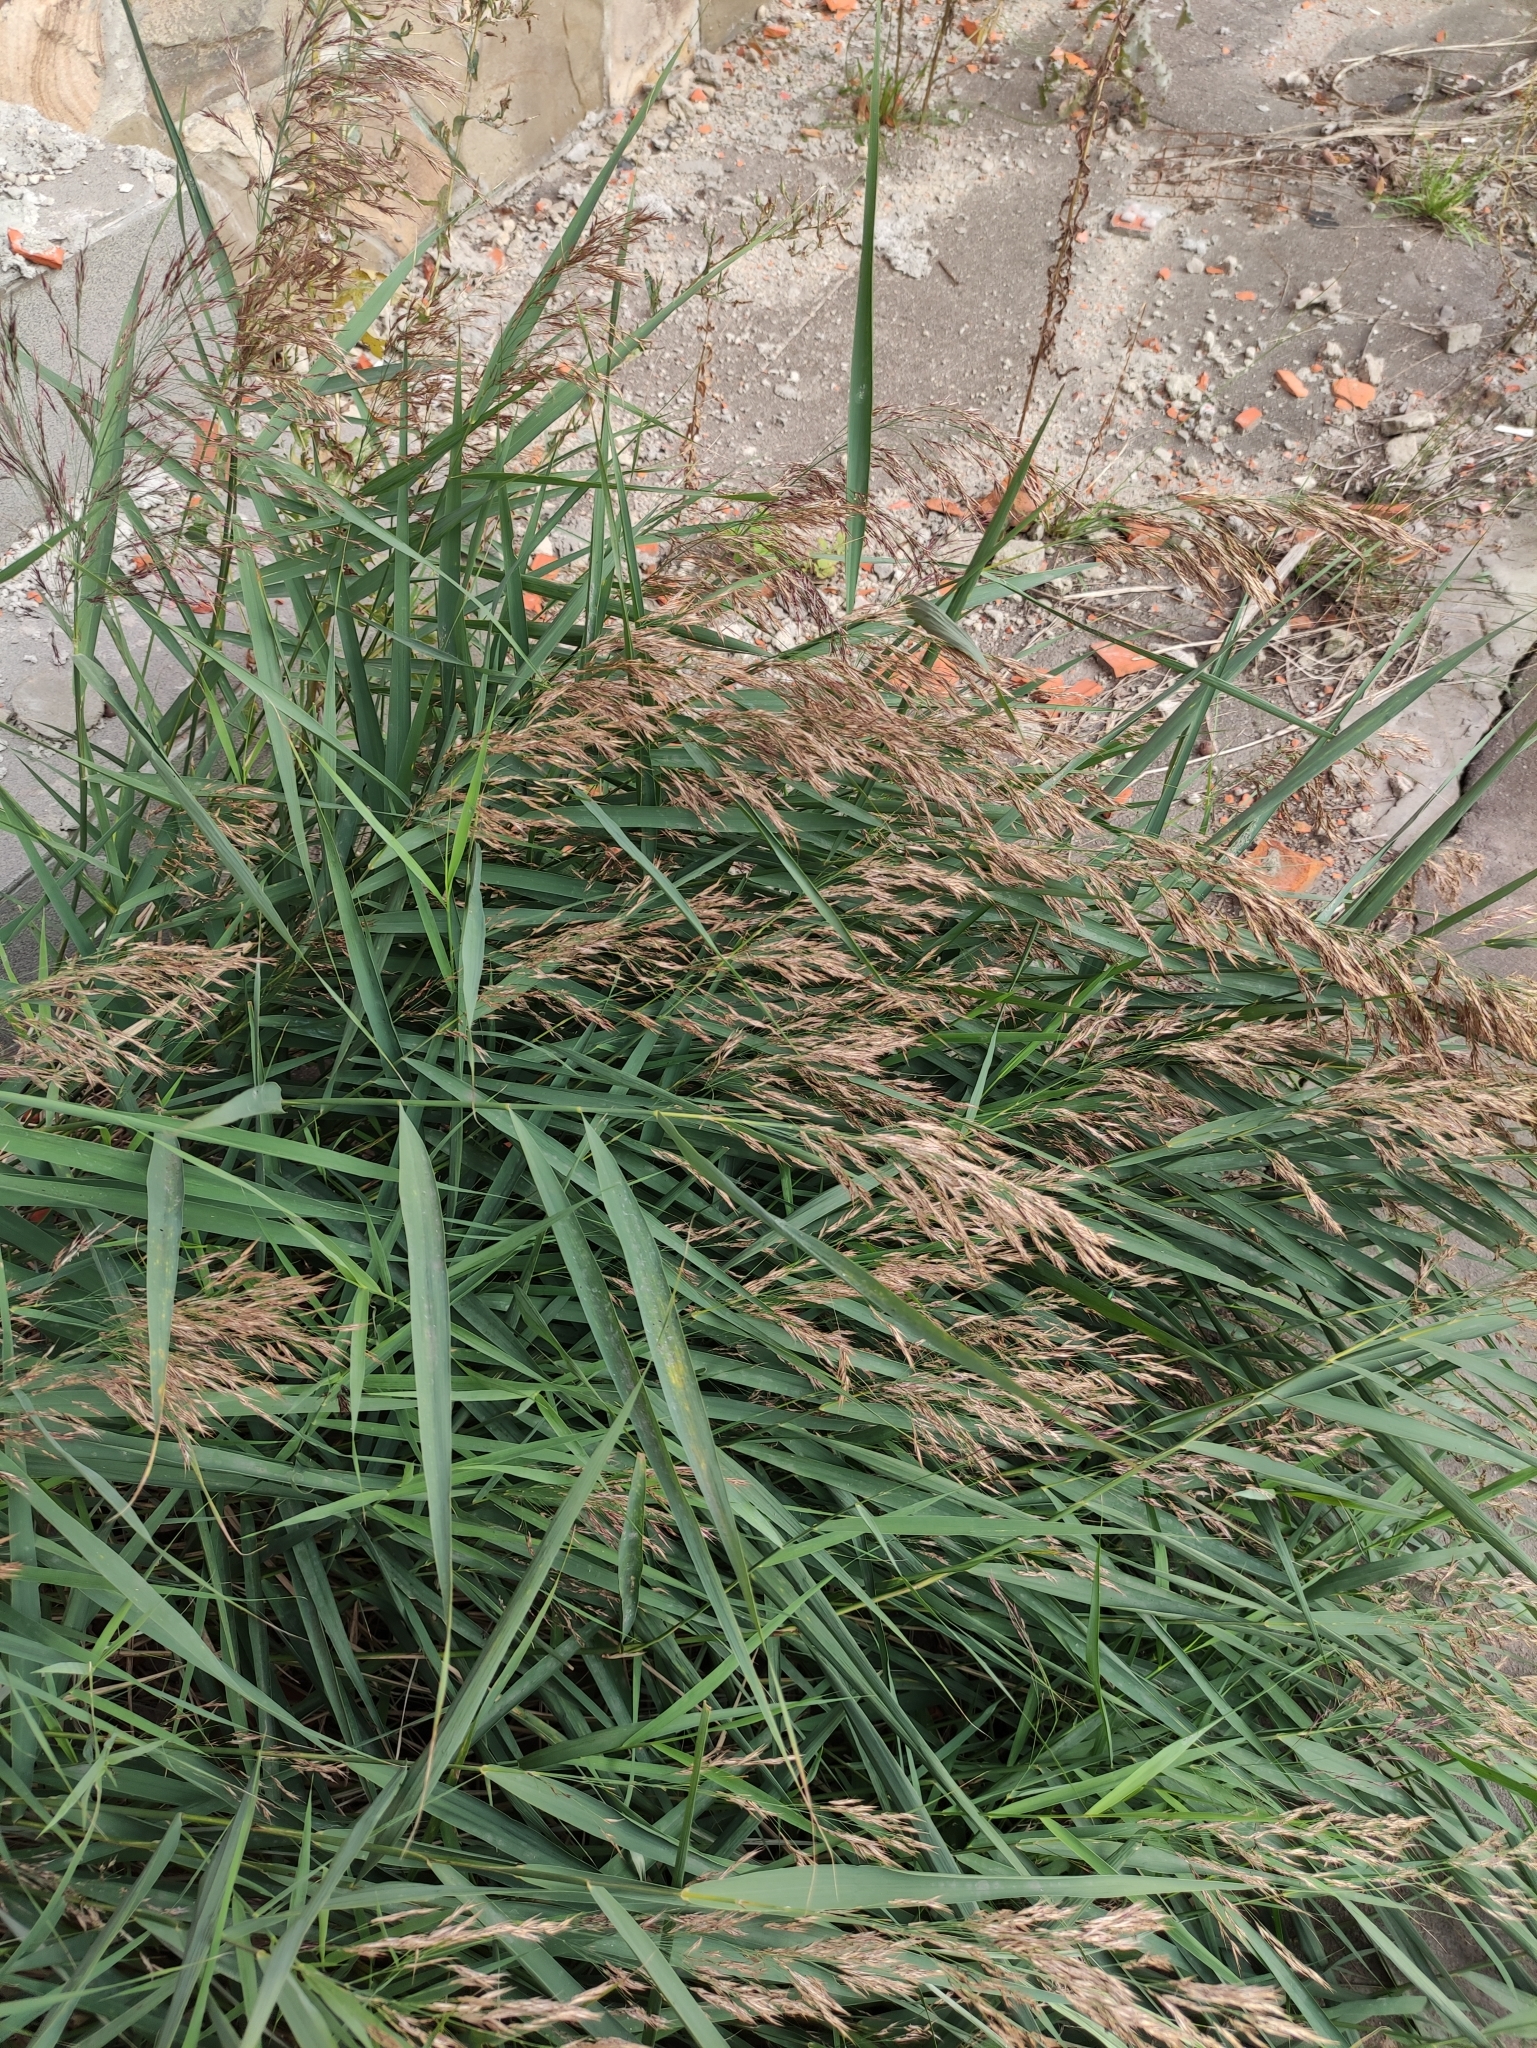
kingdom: Plantae
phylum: Tracheophyta
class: Liliopsida
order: Poales
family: Poaceae
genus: Phragmites
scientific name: Phragmites australis
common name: Common reed
